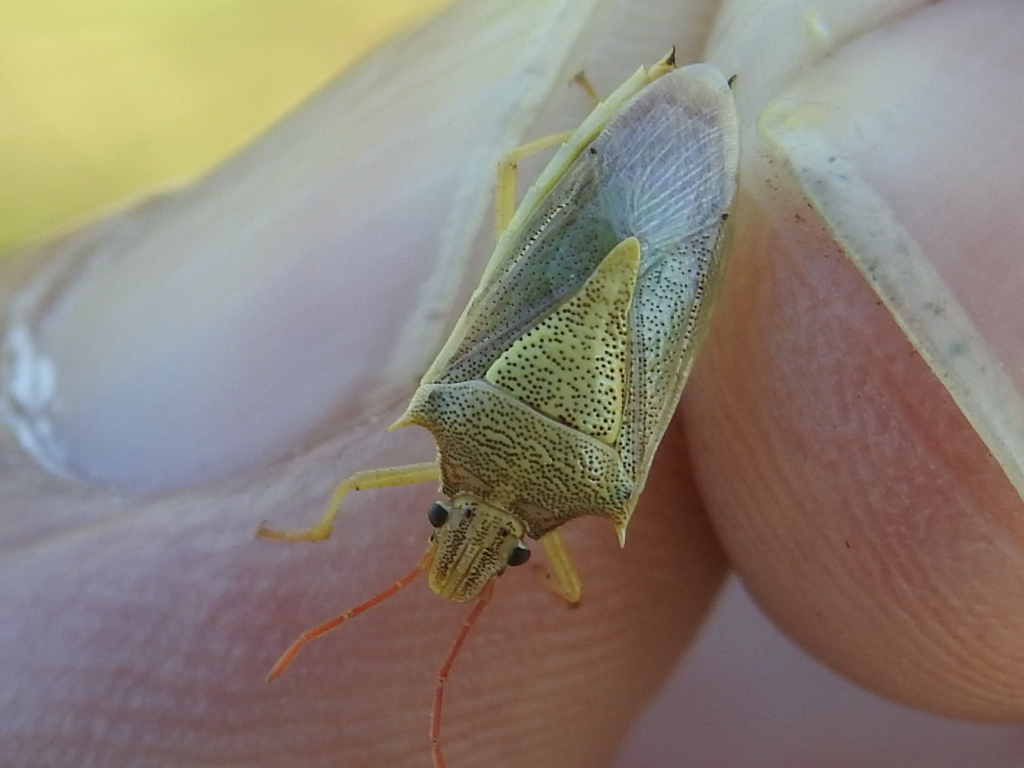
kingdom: Animalia
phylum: Arthropoda
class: Insecta
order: Hemiptera
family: Pentatomidae
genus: Oebalus
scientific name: Oebalus pugnax
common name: Rice stink bug
